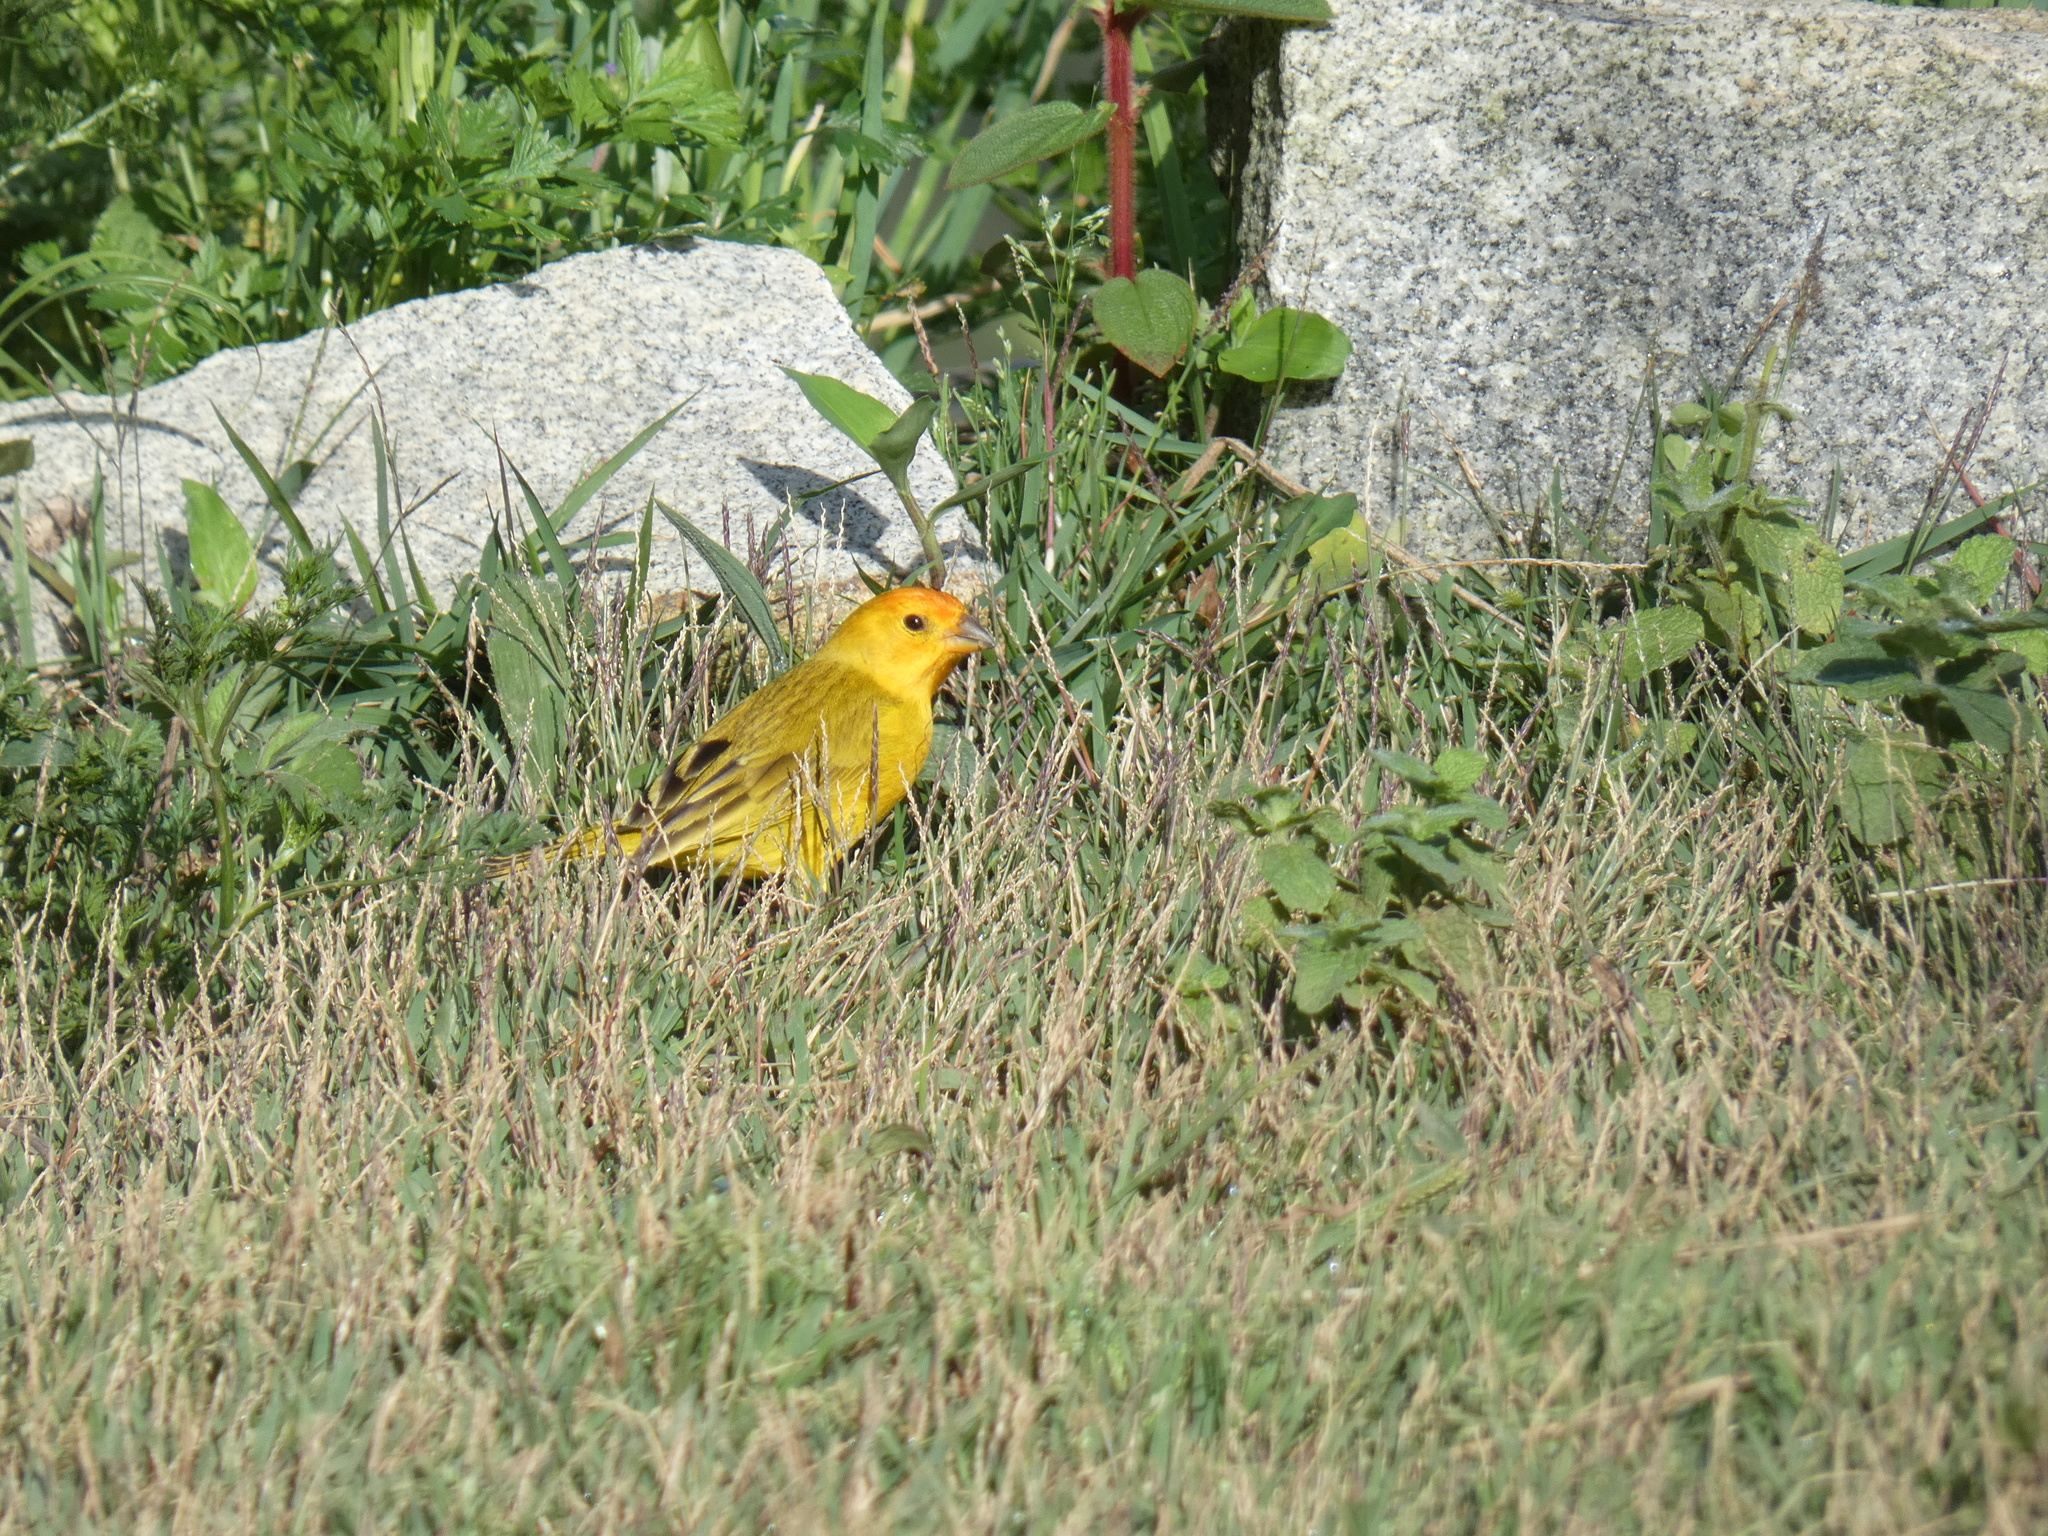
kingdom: Animalia
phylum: Chordata
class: Aves
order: Passeriformes
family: Thraupidae
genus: Sicalis
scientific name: Sicalis flaveola
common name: Saffron finch
